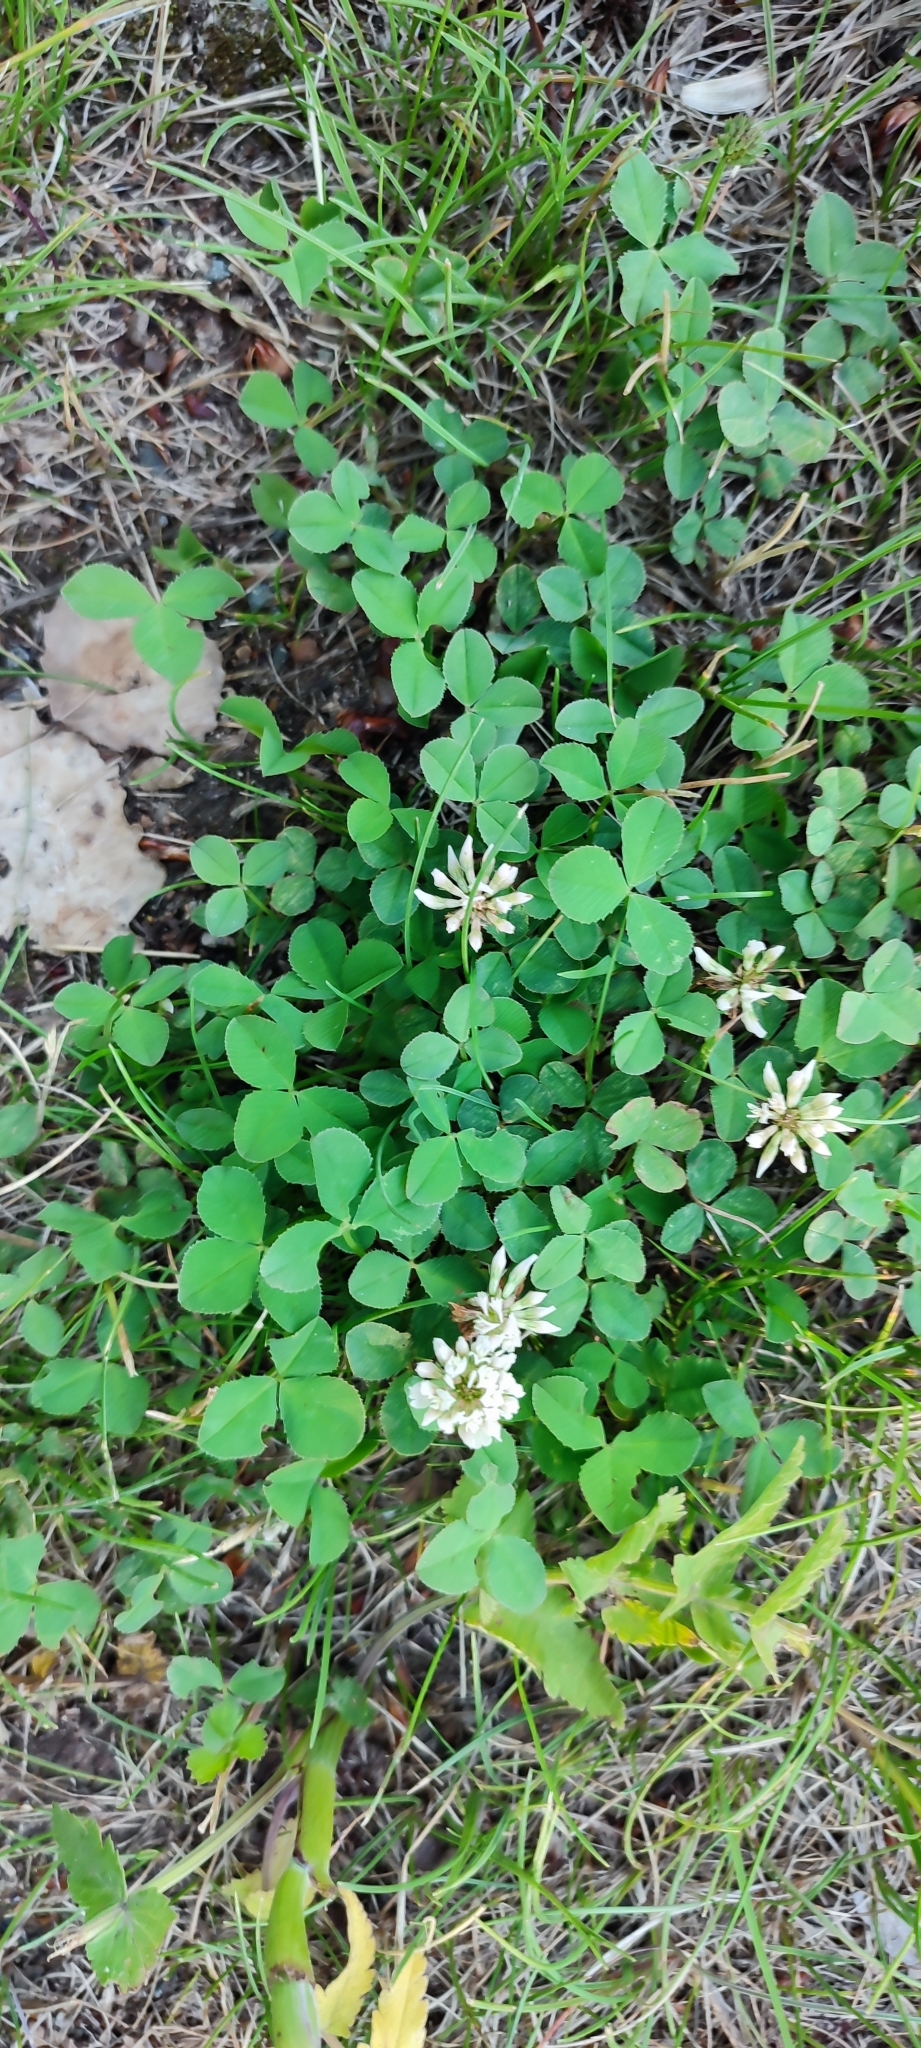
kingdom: Plantae
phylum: Tracheophyta
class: Magnoliopsida
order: Fabales
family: Fabaceae
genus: Trifolium
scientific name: Trifolium repens
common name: White clover
